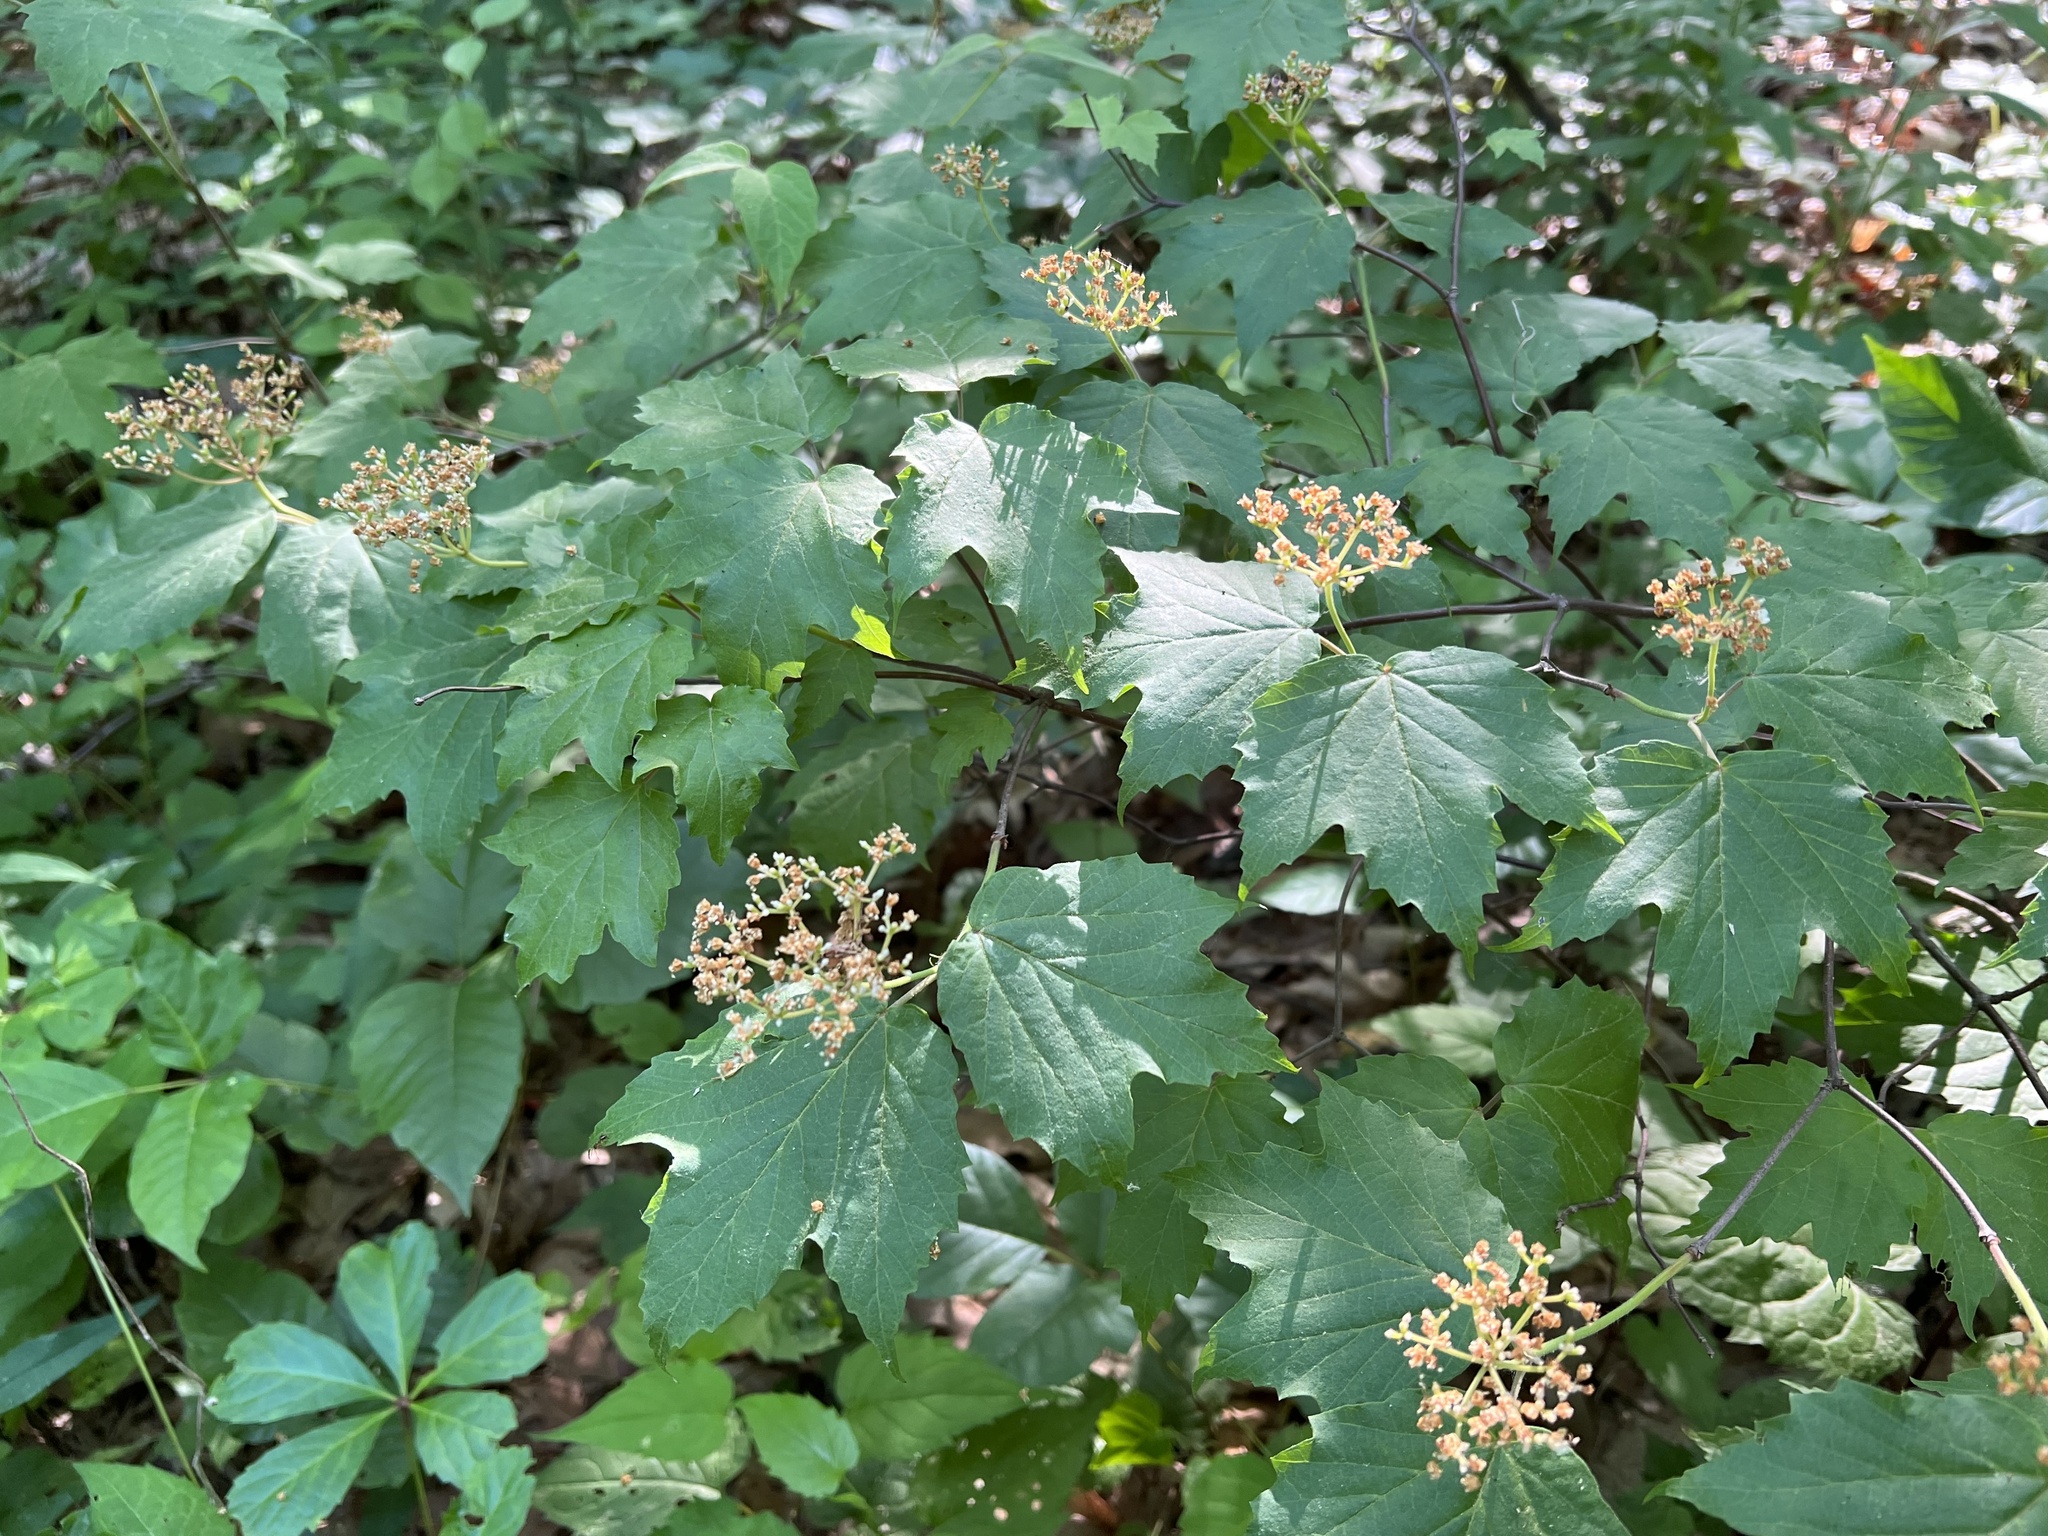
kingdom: Plantae
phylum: Tracheophyta
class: Magnoliopsida
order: Dipsacales
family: Viburnaceae
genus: Viburnum
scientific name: Viburnum acerifolium
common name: Dockmackie
